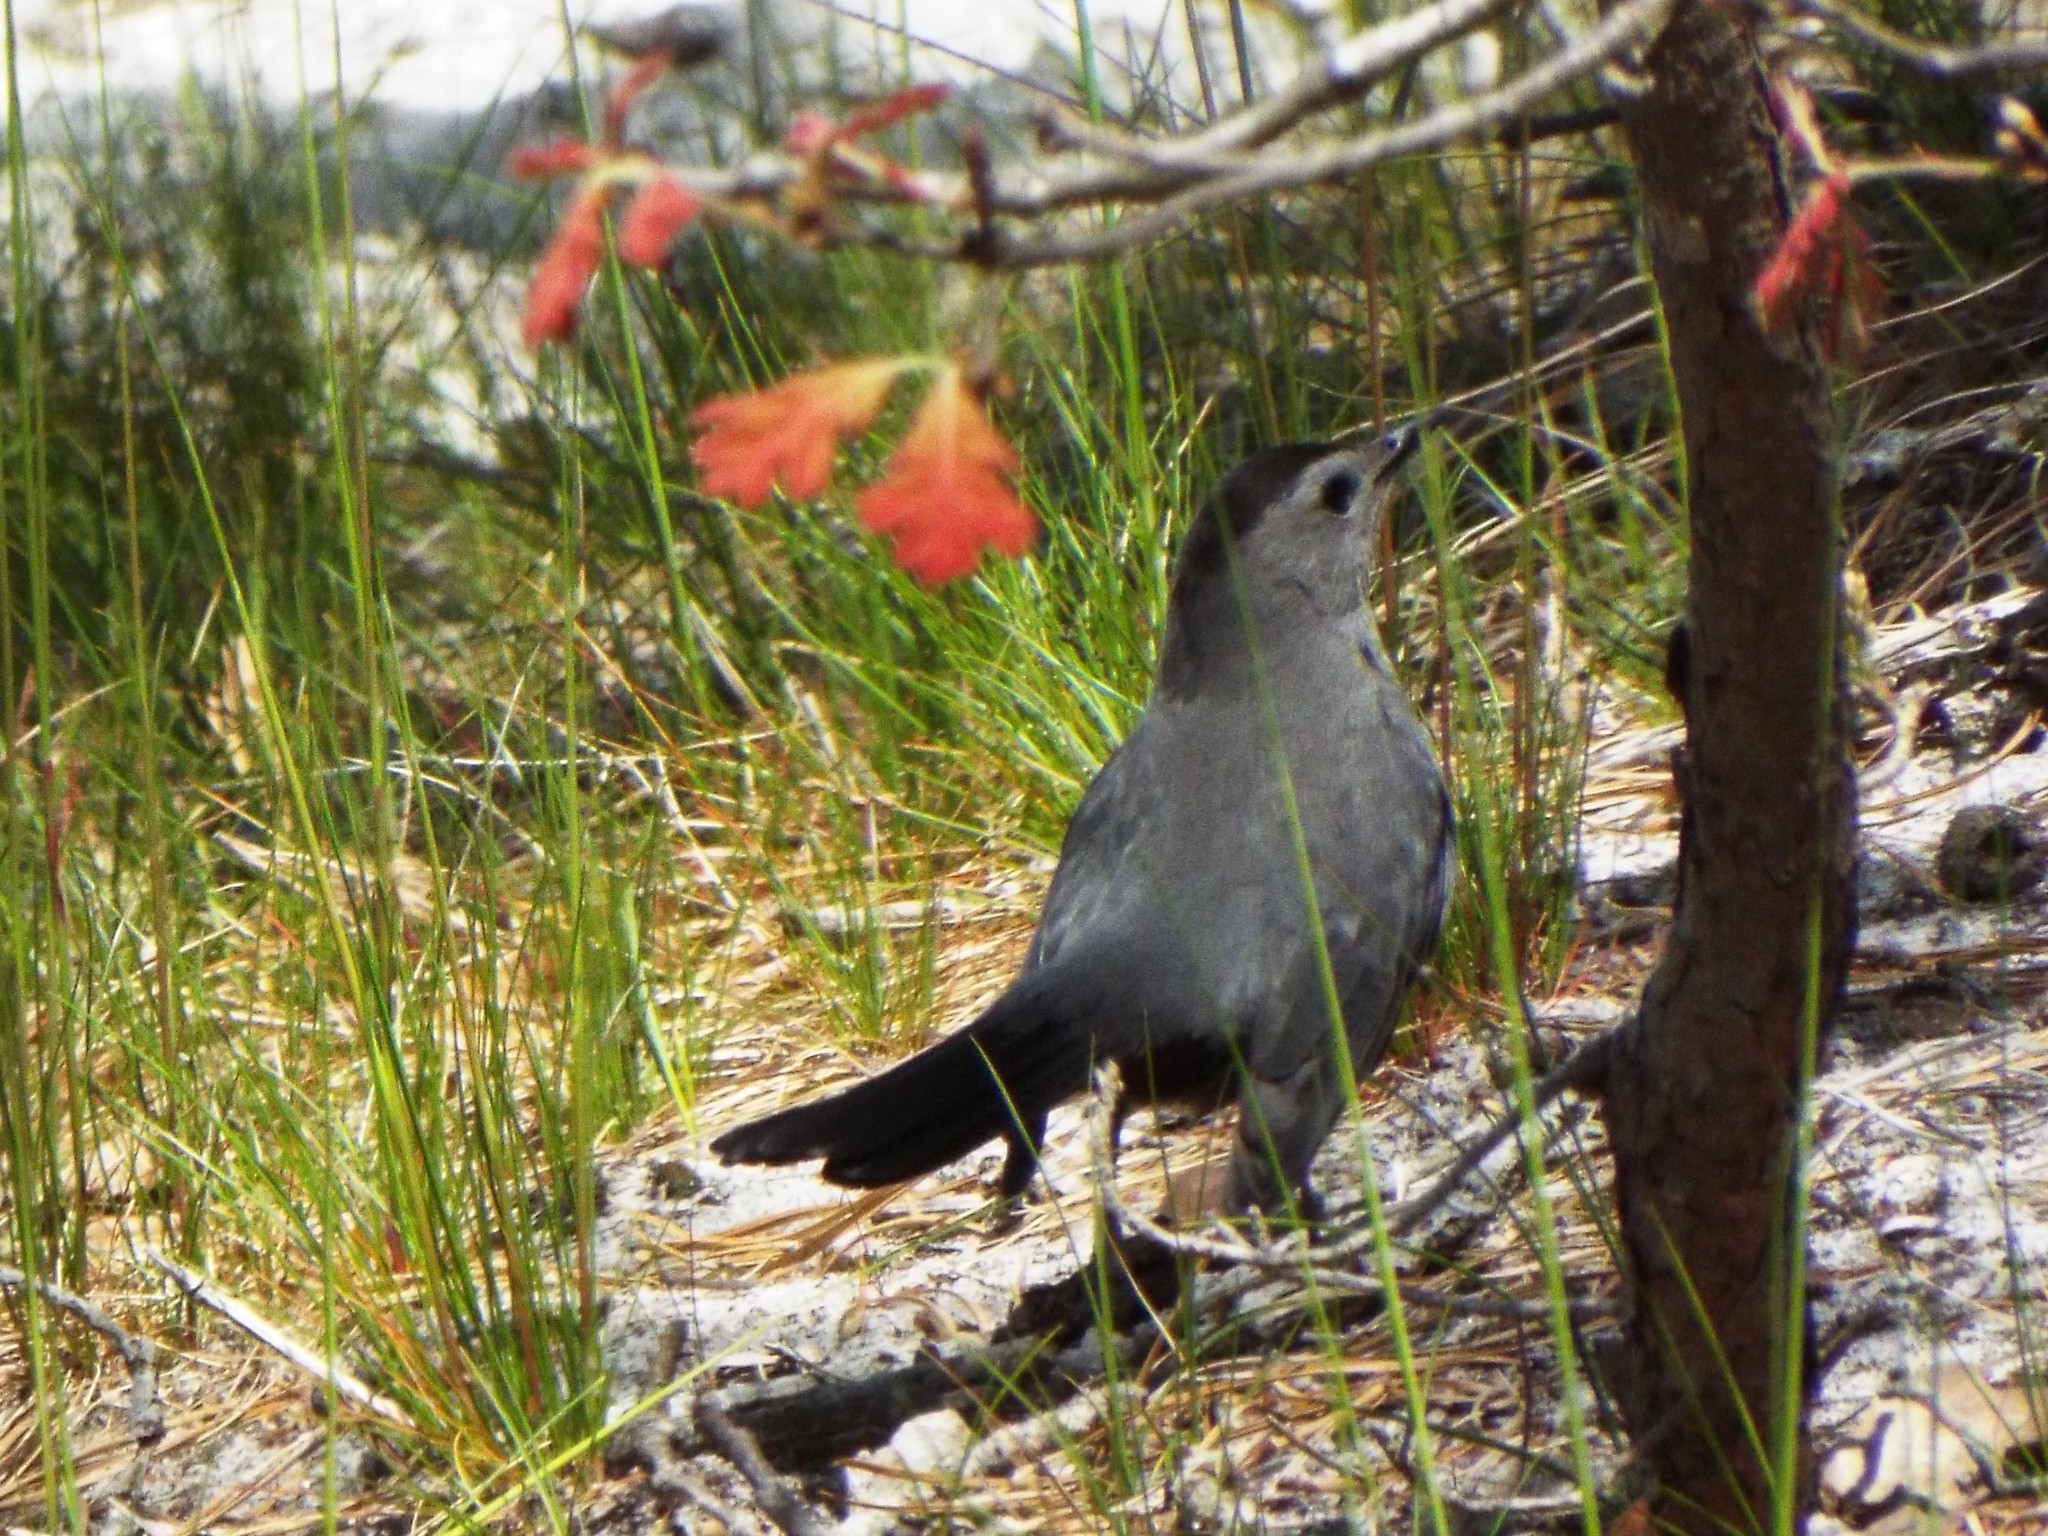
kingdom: Animalia
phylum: Chordata
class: Aves
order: Passeriformes
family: Mimidae
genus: Dumetella
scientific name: Dumetella carolinensis
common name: Gray catbird
